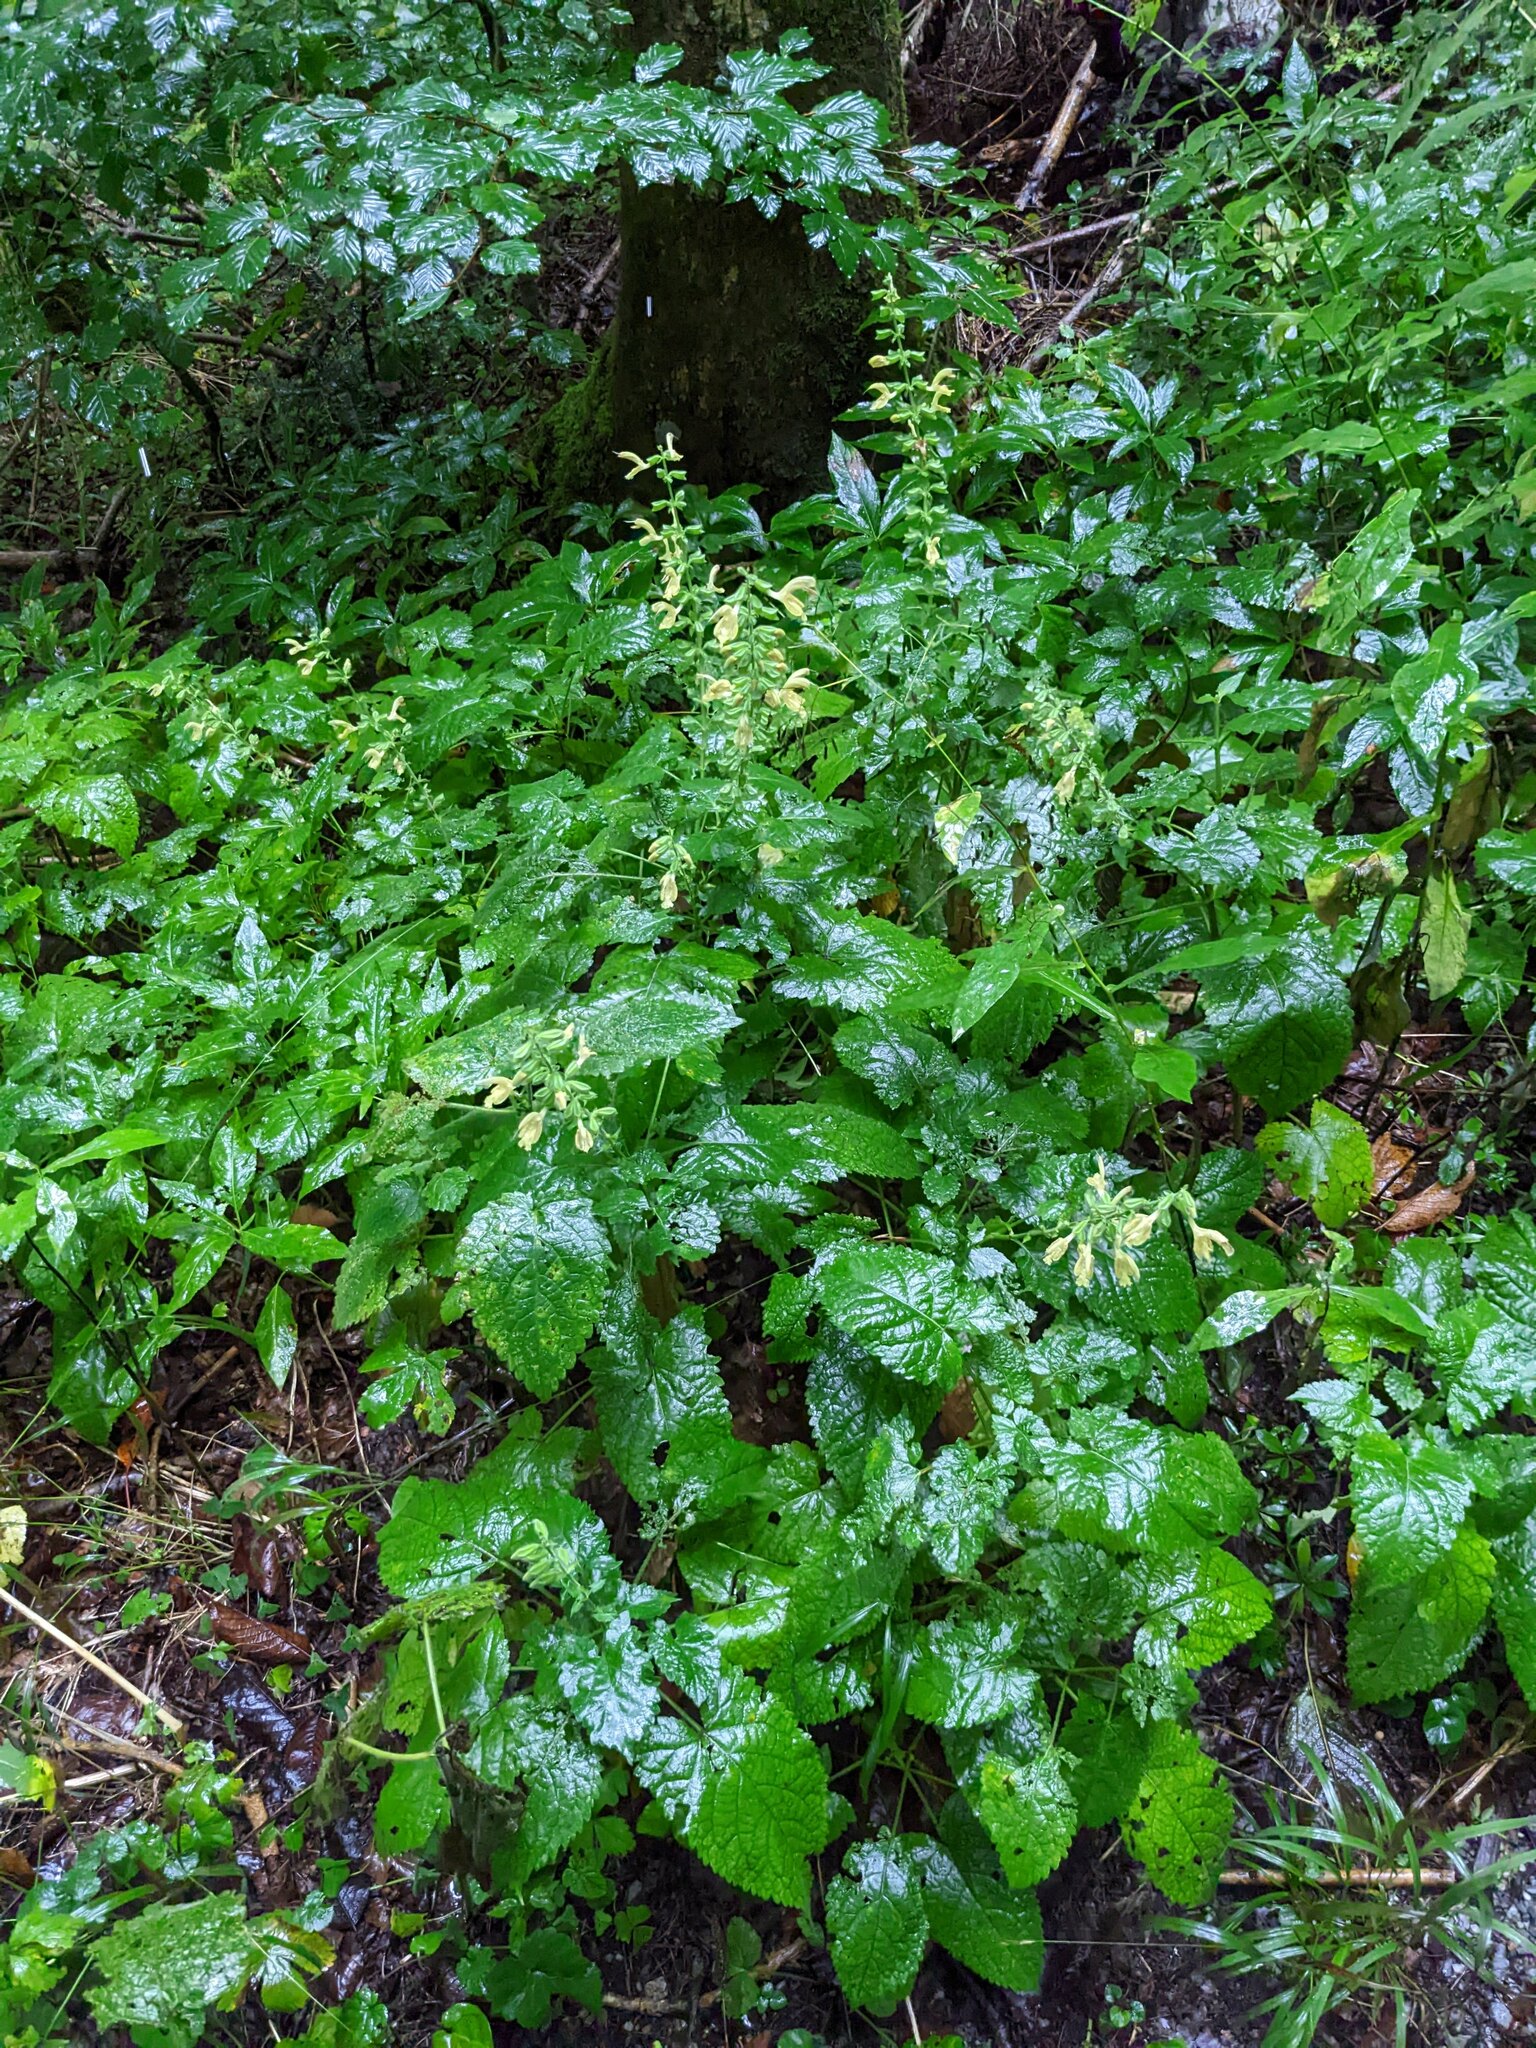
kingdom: Plantae
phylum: Tracheophyta
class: Magnoliopsida
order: Lamiales
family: Lamiaceae
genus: Salvia
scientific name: Salvia glutinosa
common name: Sticky clary
